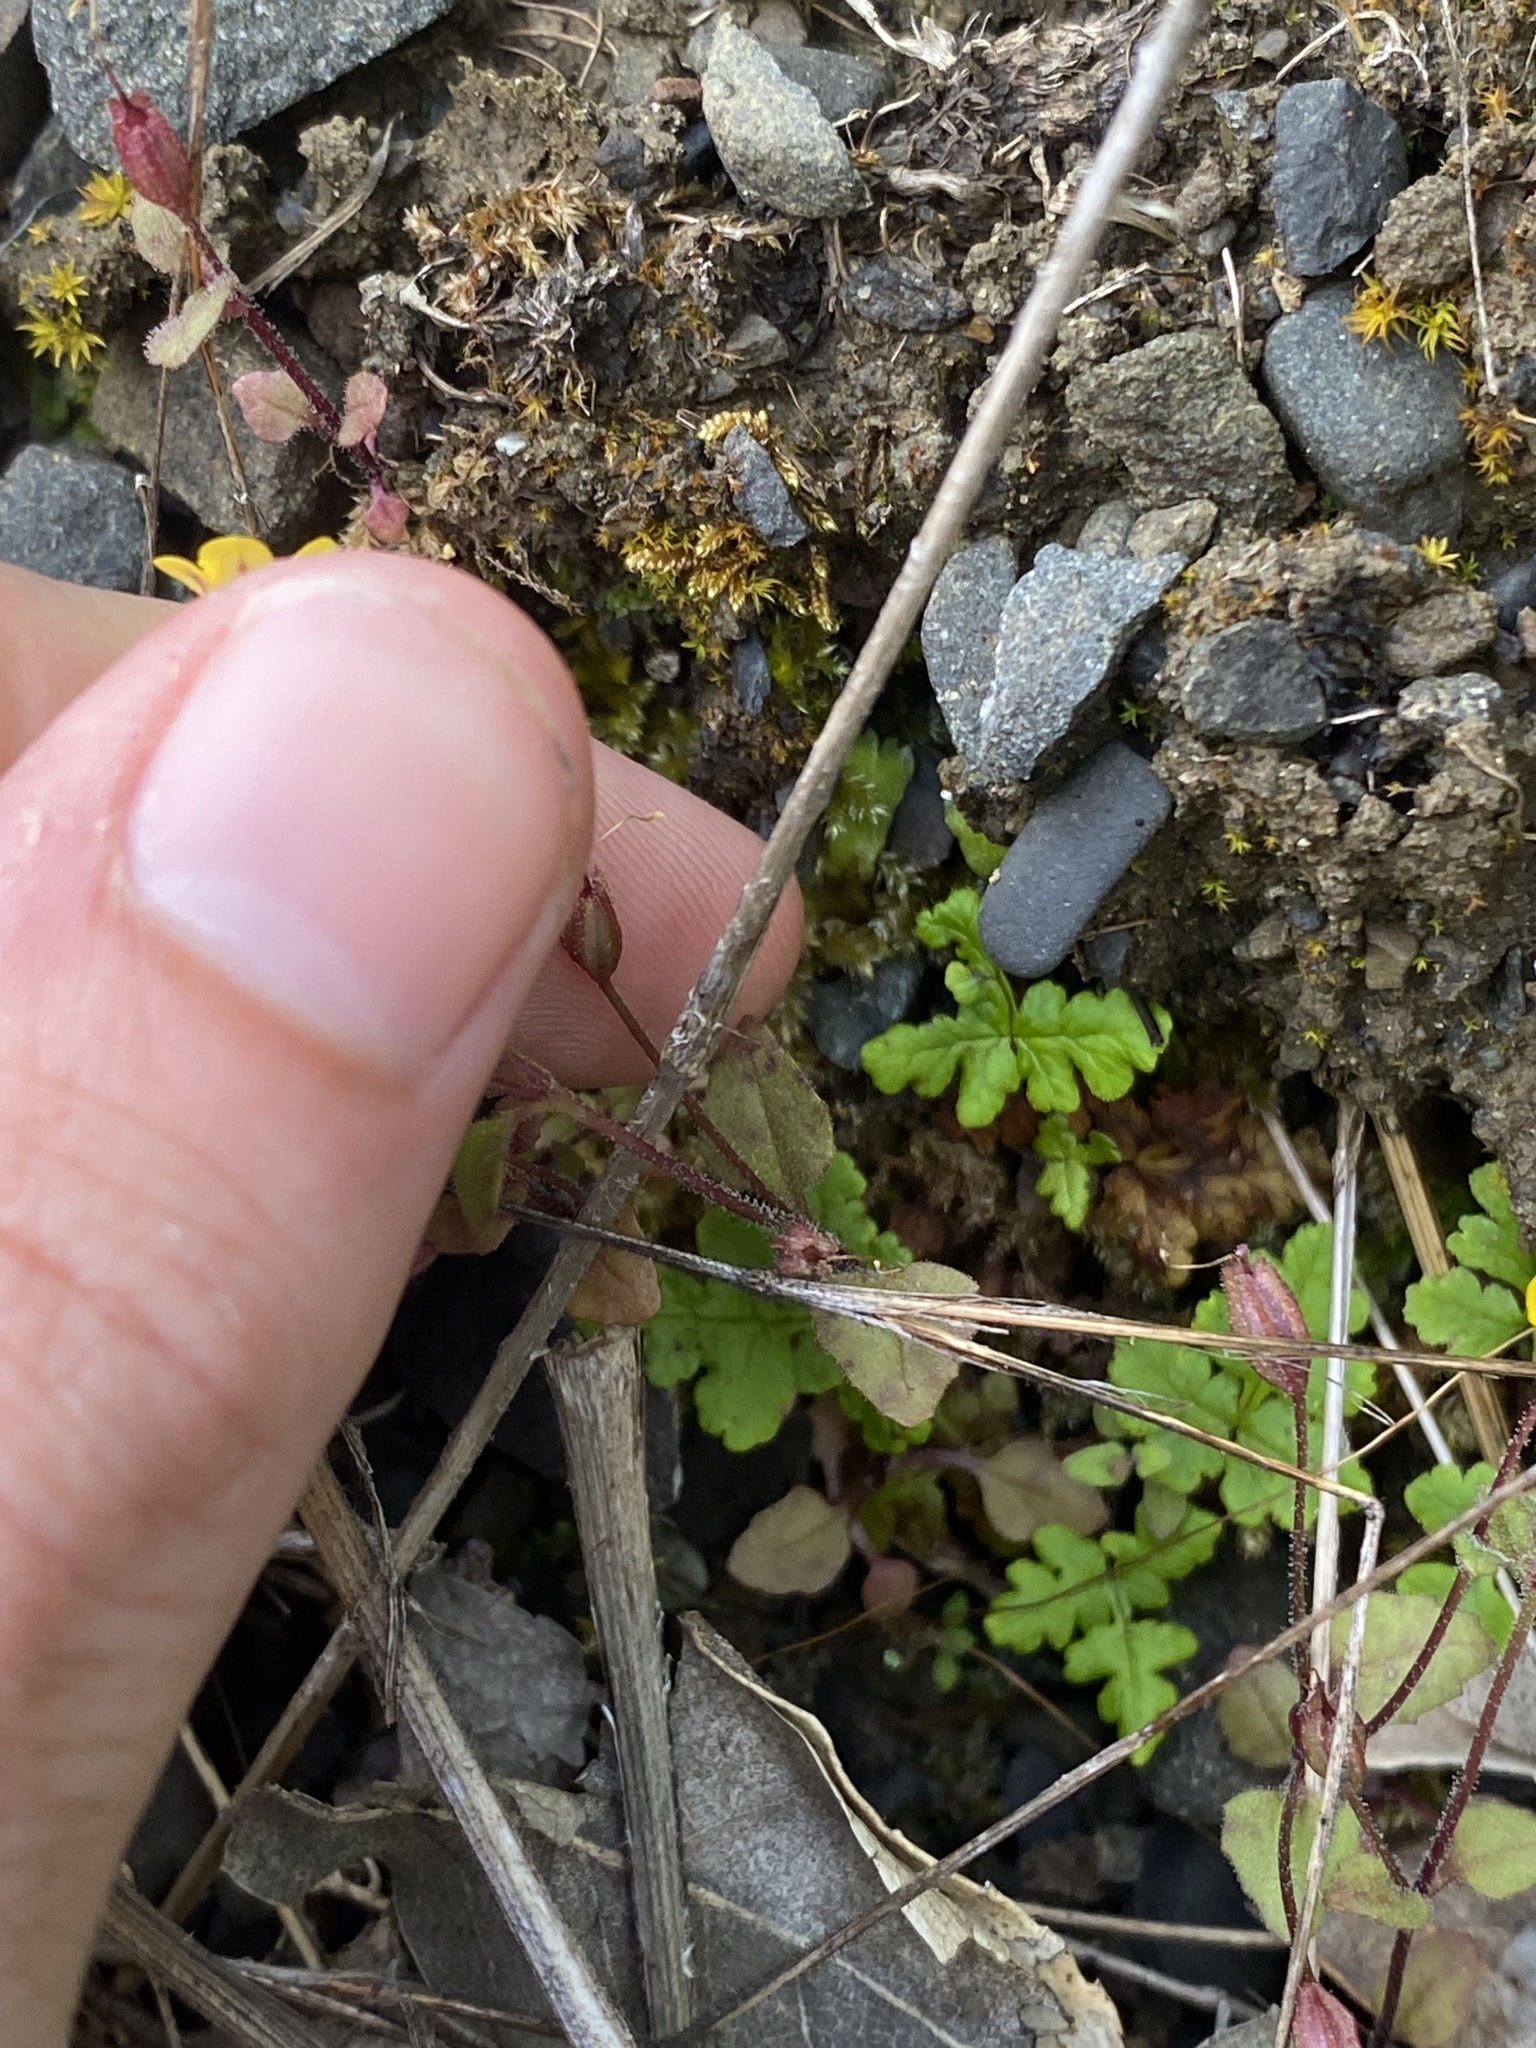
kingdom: Plantae
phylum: Tracheophyta
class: Magnoliopsida
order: Lamiales
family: Phrymaceae
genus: Erythranthe
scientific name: Erythranthe alsinoides
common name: Chickweed monkeyflower
